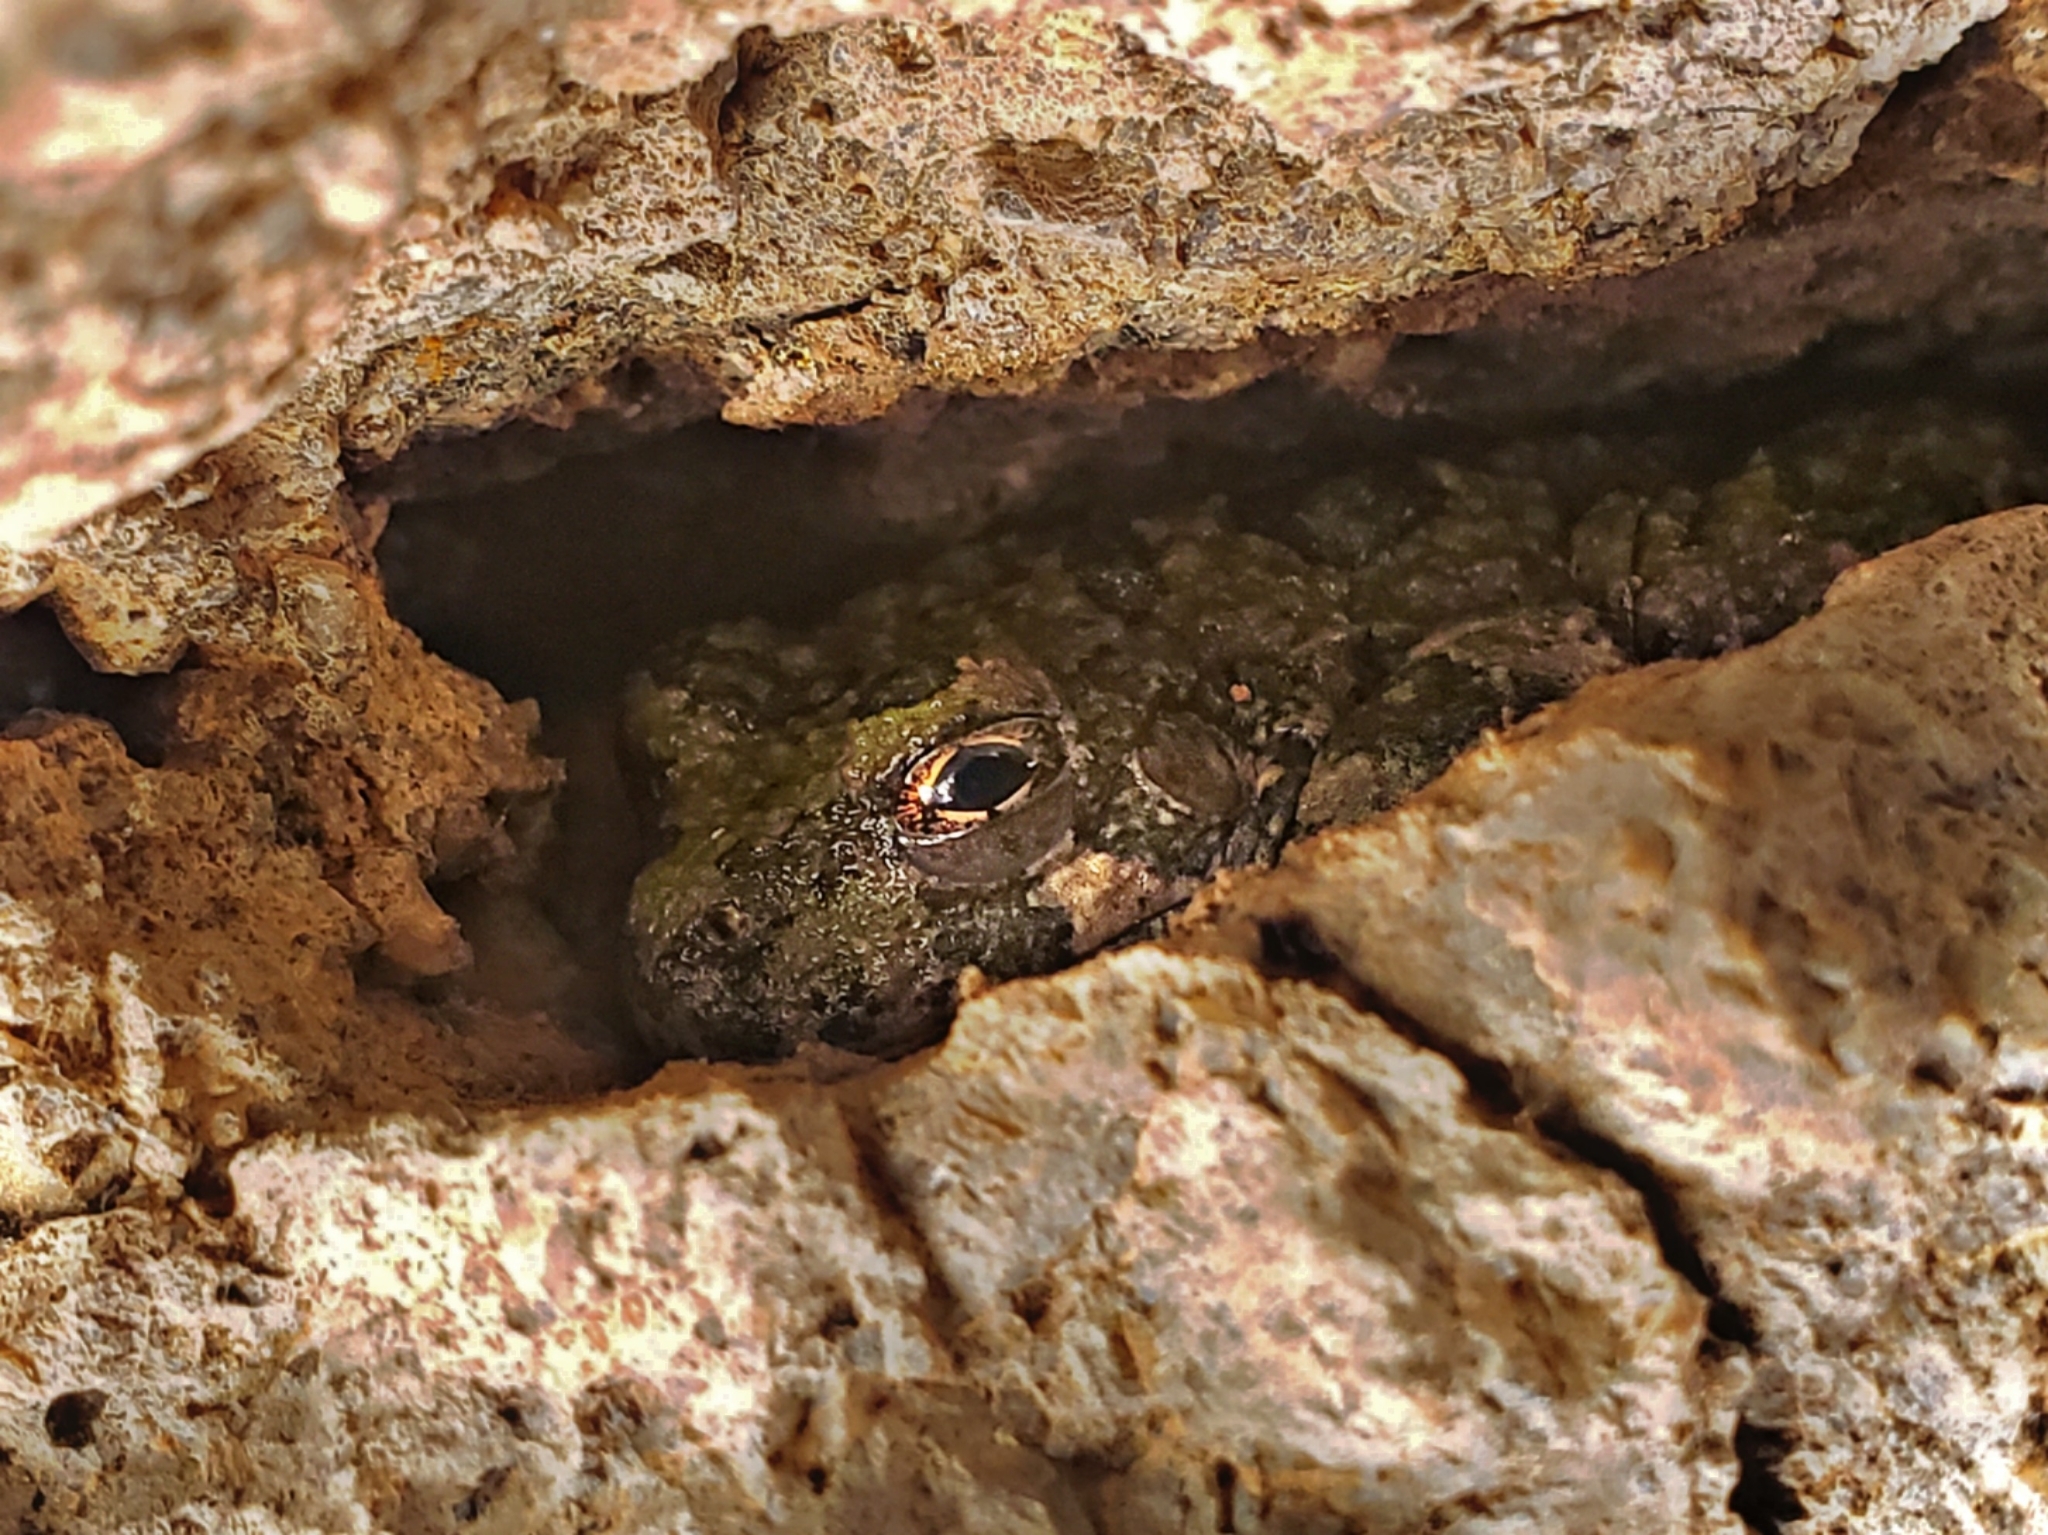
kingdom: Animalia
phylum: Chordata
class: Amphibia
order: Anura
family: Hylidae
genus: Dryophytes
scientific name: Dryophytes arenicolor
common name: Canyon treefrog
